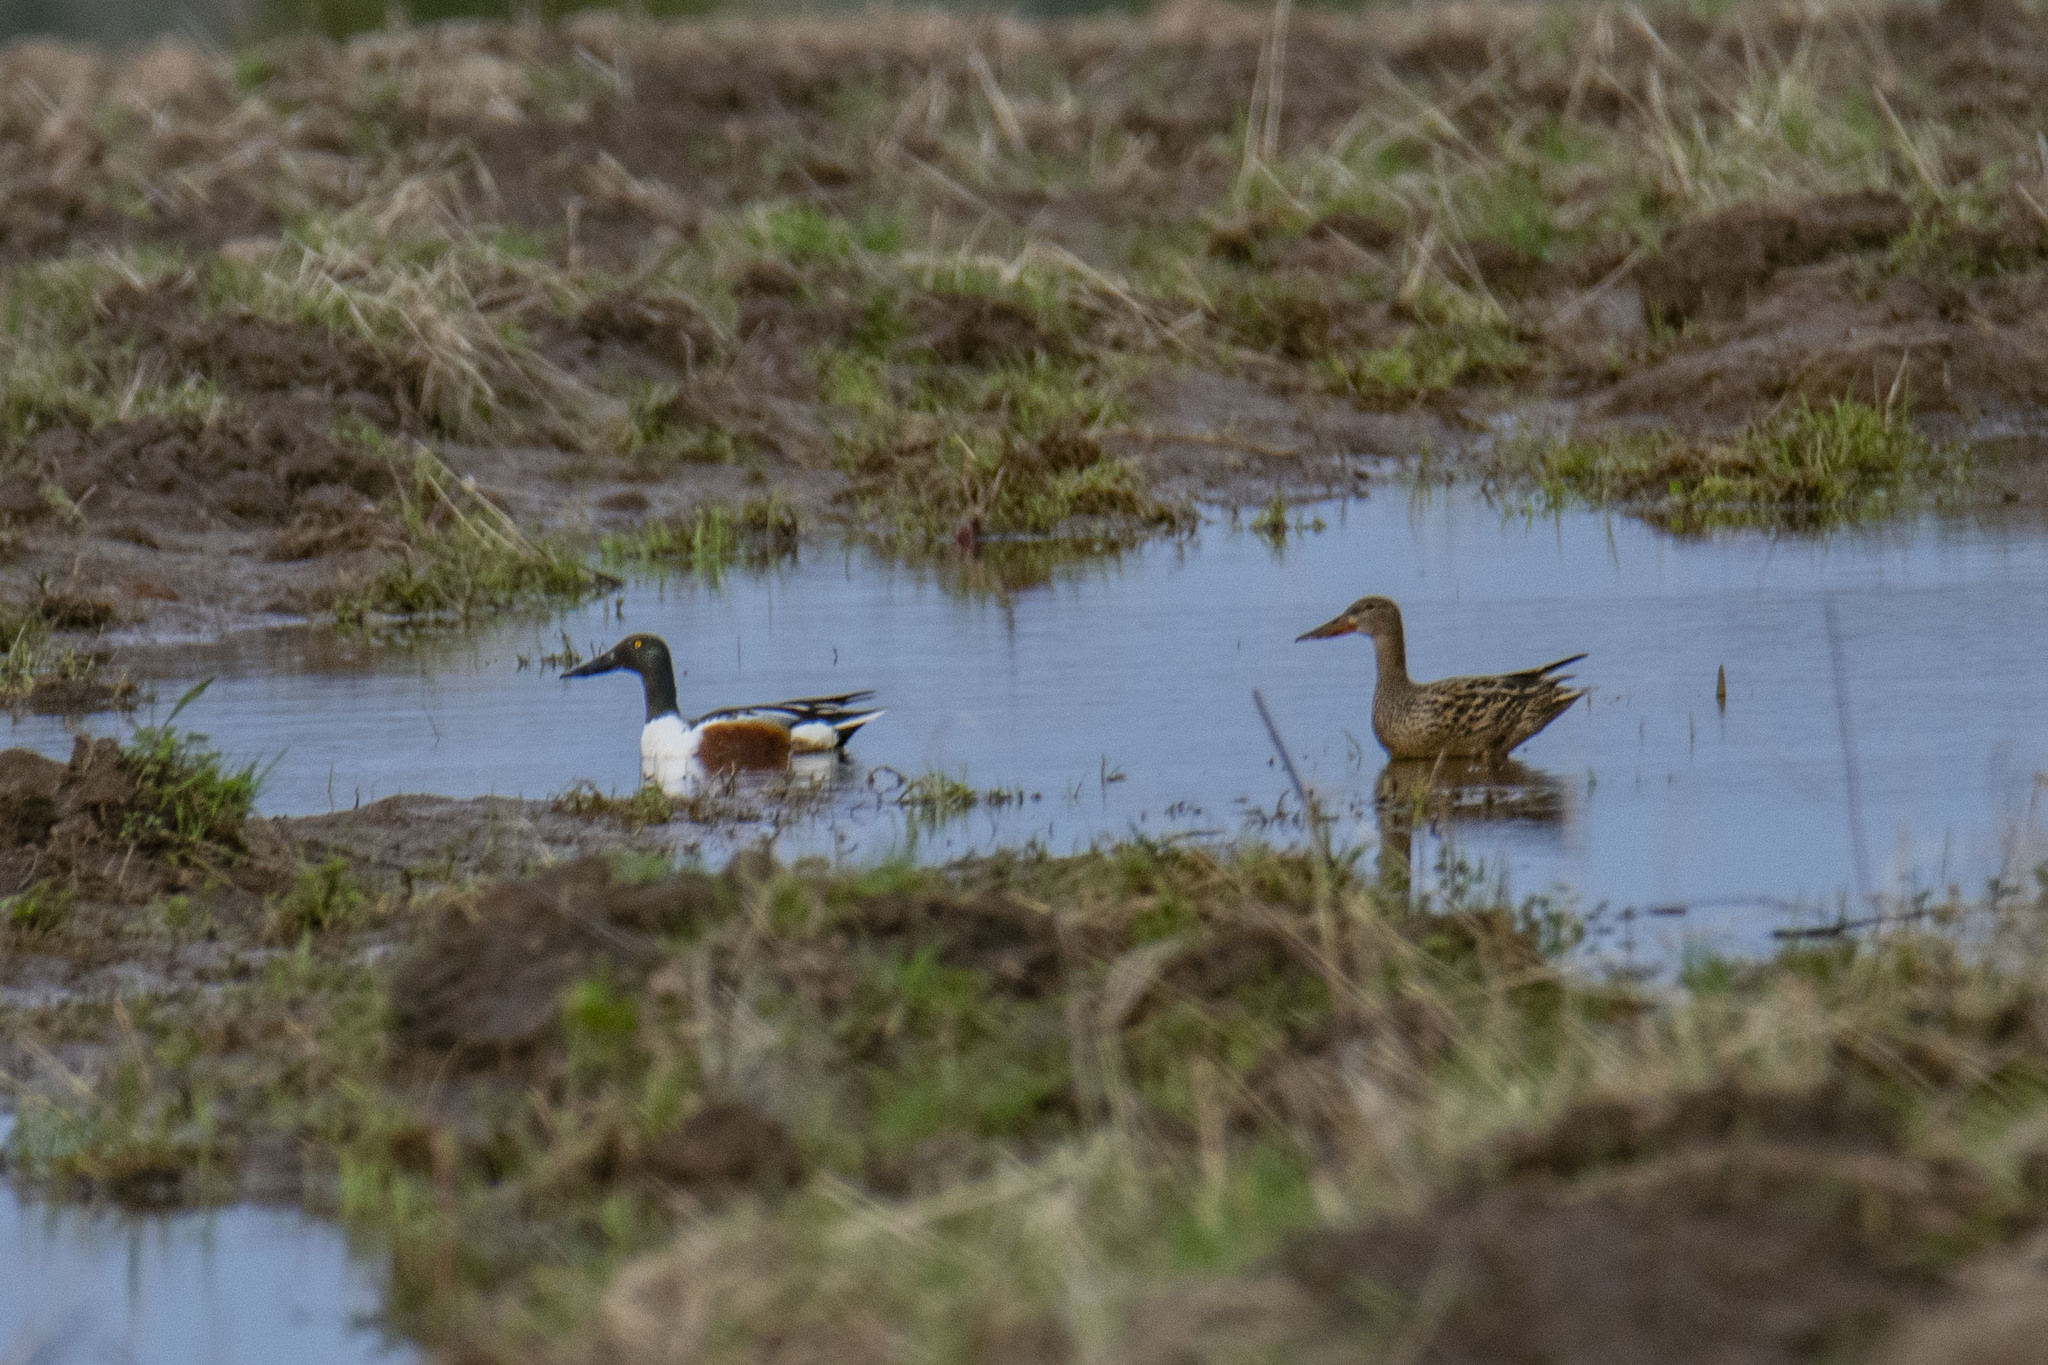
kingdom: Animalia
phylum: Chordata
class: Aves
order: Anseriformes
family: Anatidae
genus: Spatula
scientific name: Spatula clypeata
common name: Northern shoveler
